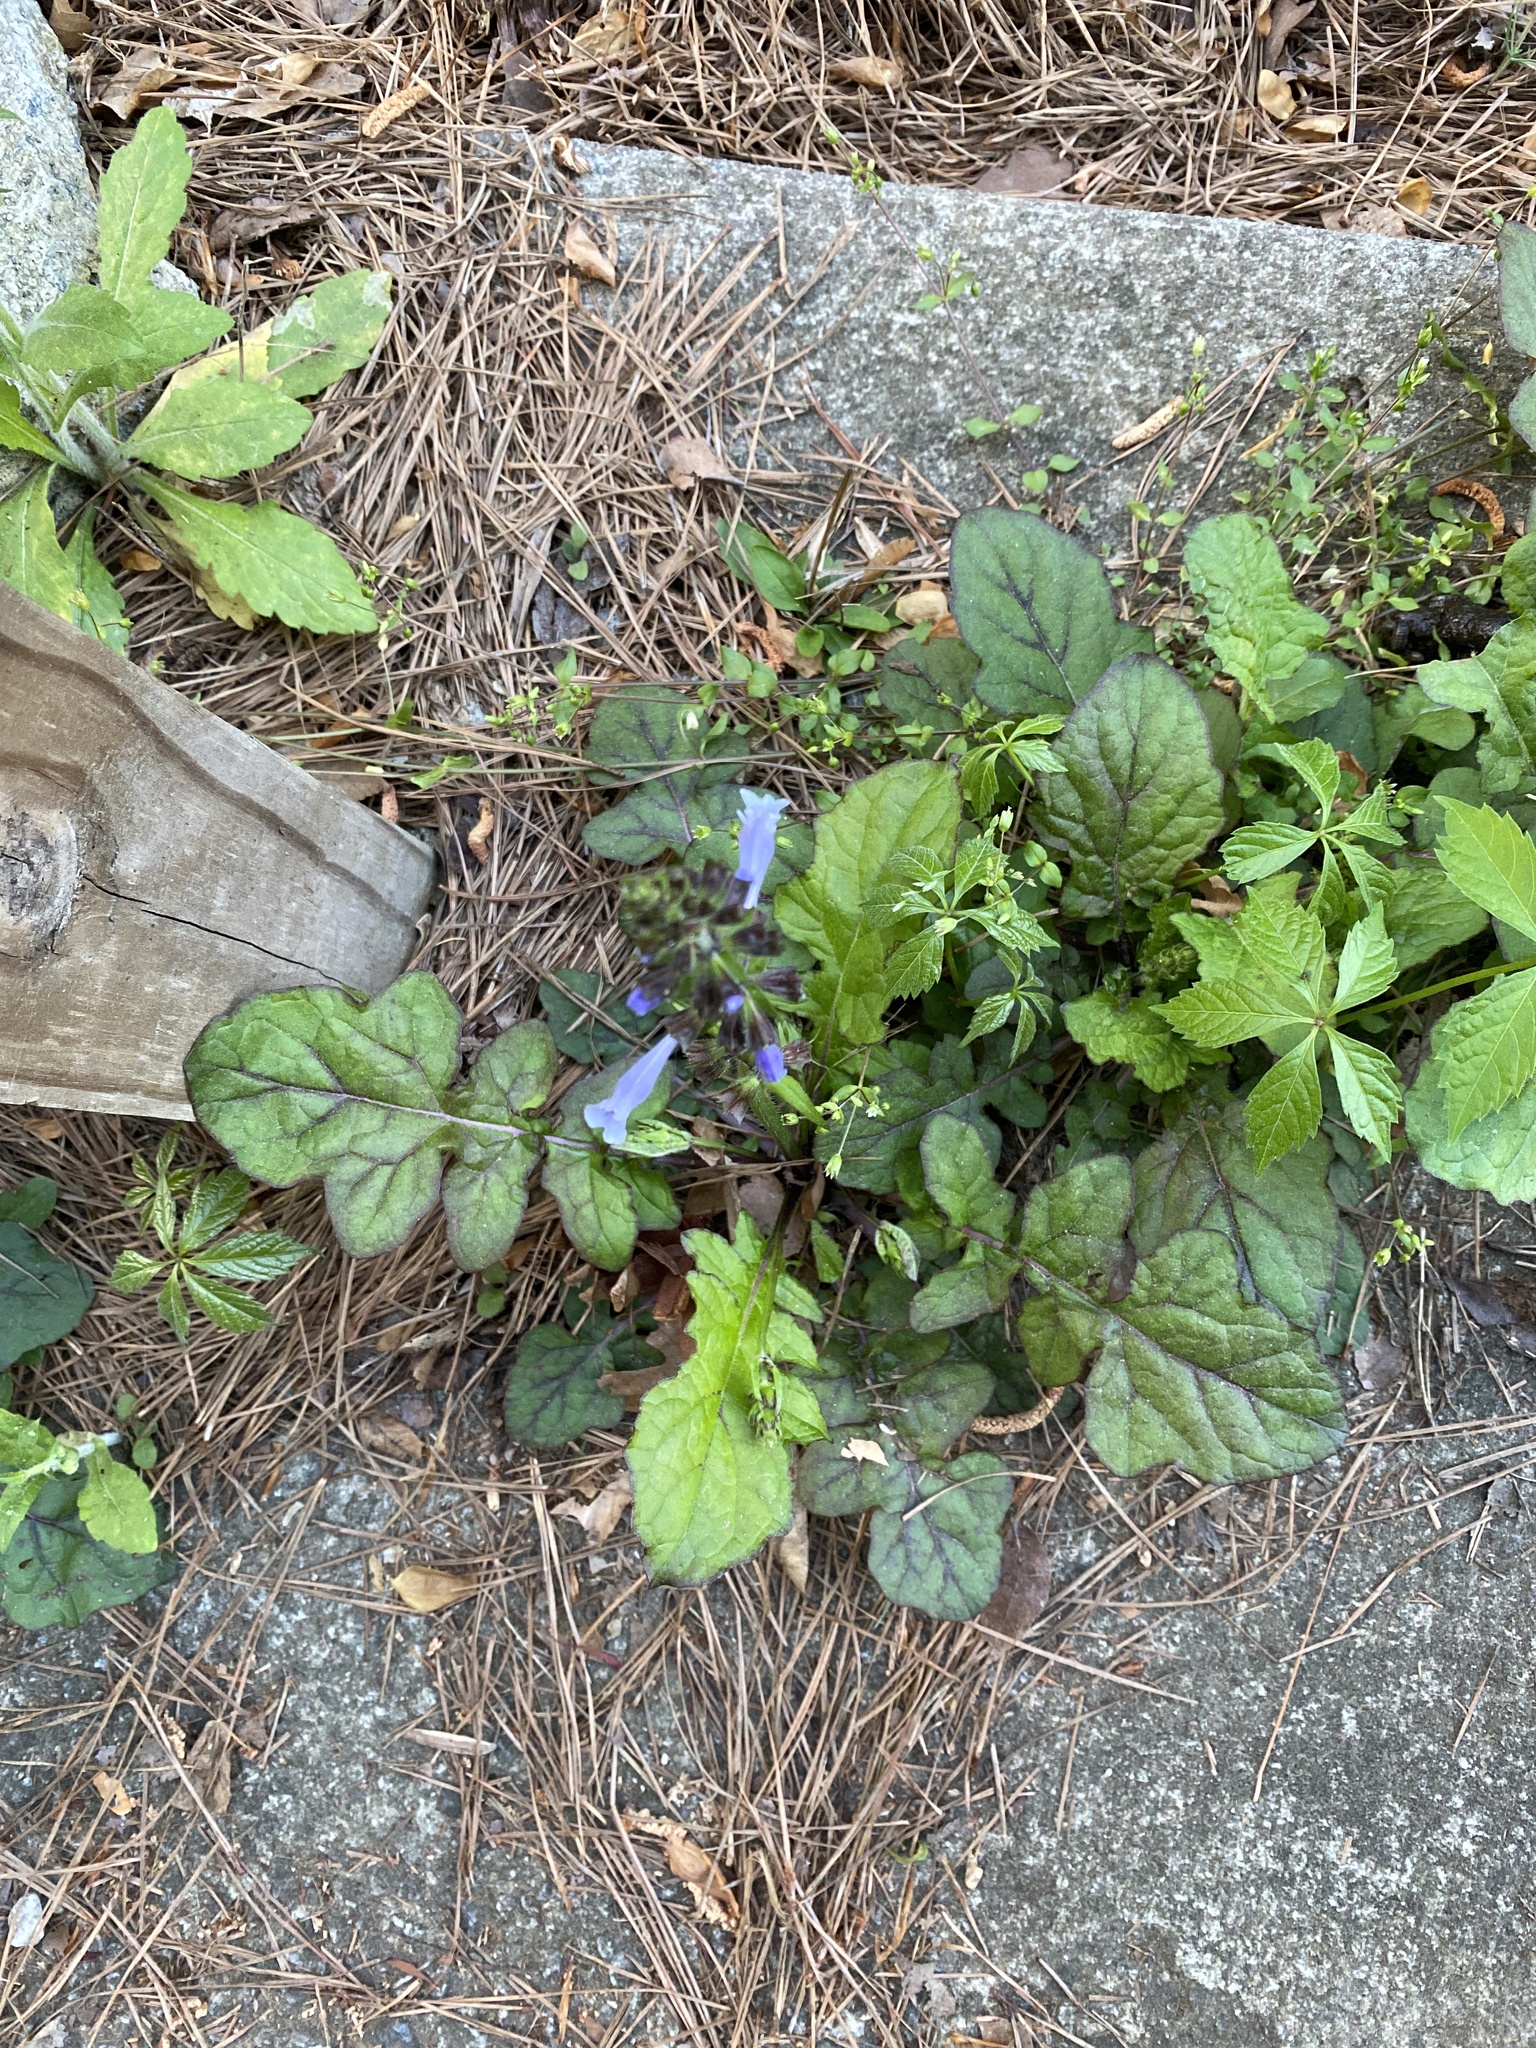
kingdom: Plantae
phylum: Tracheophyta
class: Magnoliopsida
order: Lamiales
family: Lamiaceae
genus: Salvia
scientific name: Salvia lyrata
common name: Cancerweed
